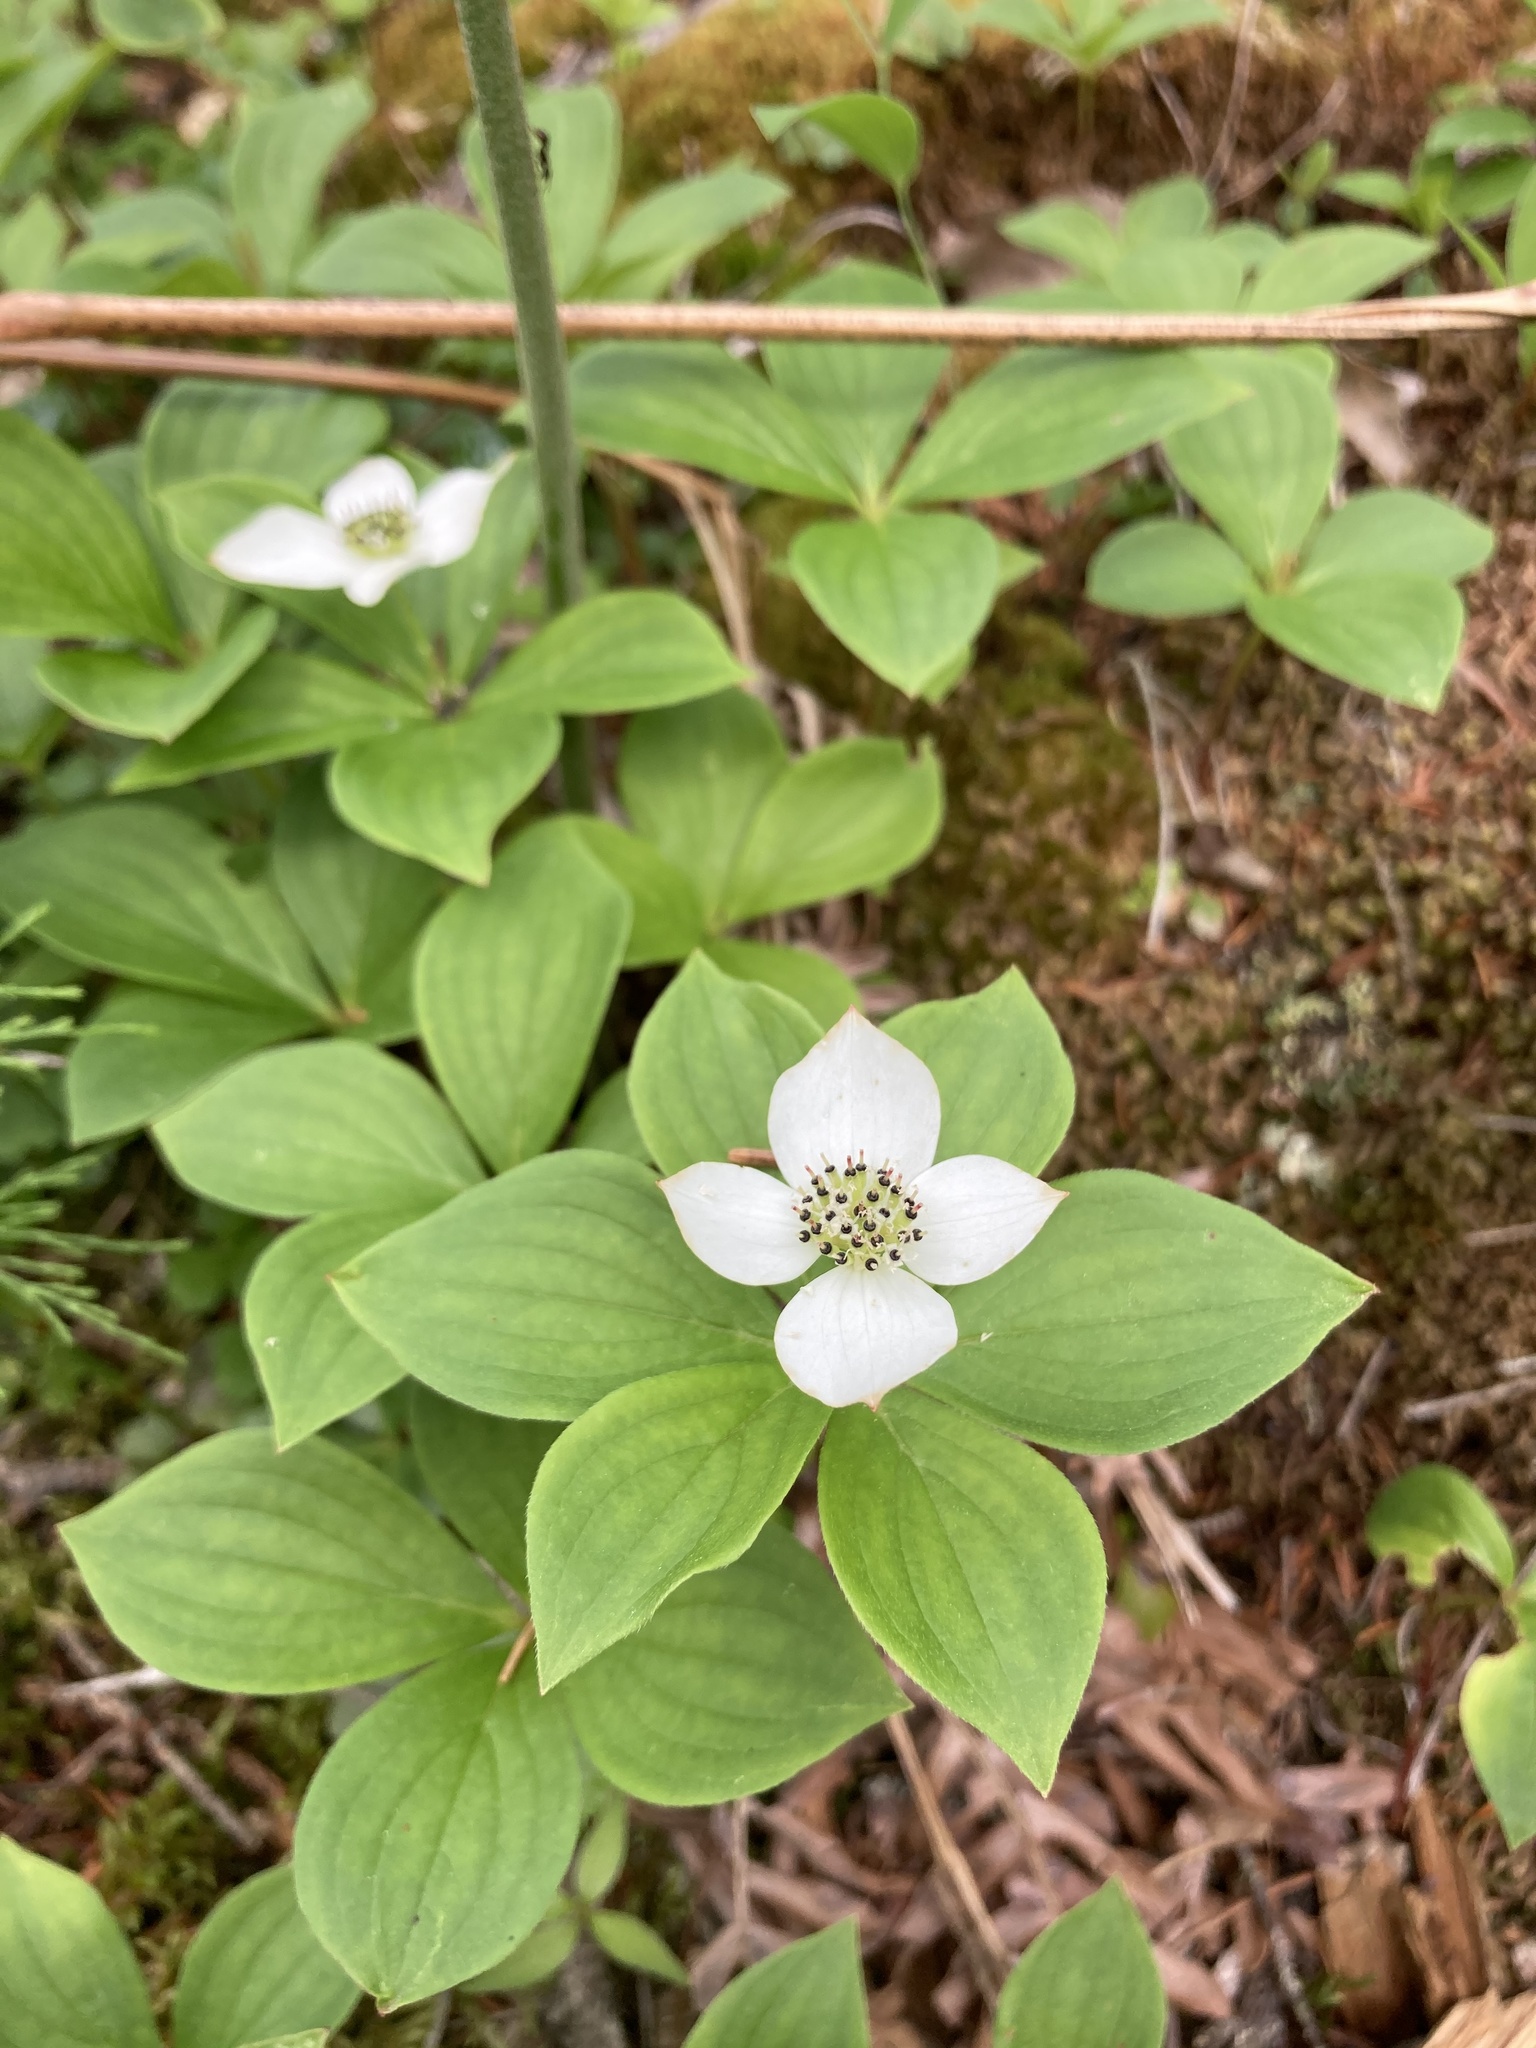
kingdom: Plantae
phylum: Tracheophyta
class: Magnoliopsida
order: Cornales
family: Cornaceae
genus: Cornus
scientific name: Cornus canadensis
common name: Creeping dogwood
